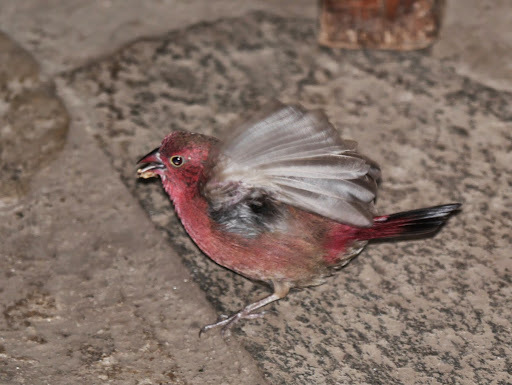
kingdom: Animalia
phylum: Chordata
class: Aves
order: Passeriformes
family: Estrildidae
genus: Lagonosticta
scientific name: Lagonosticta senegala
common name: Red-billed firefinch
